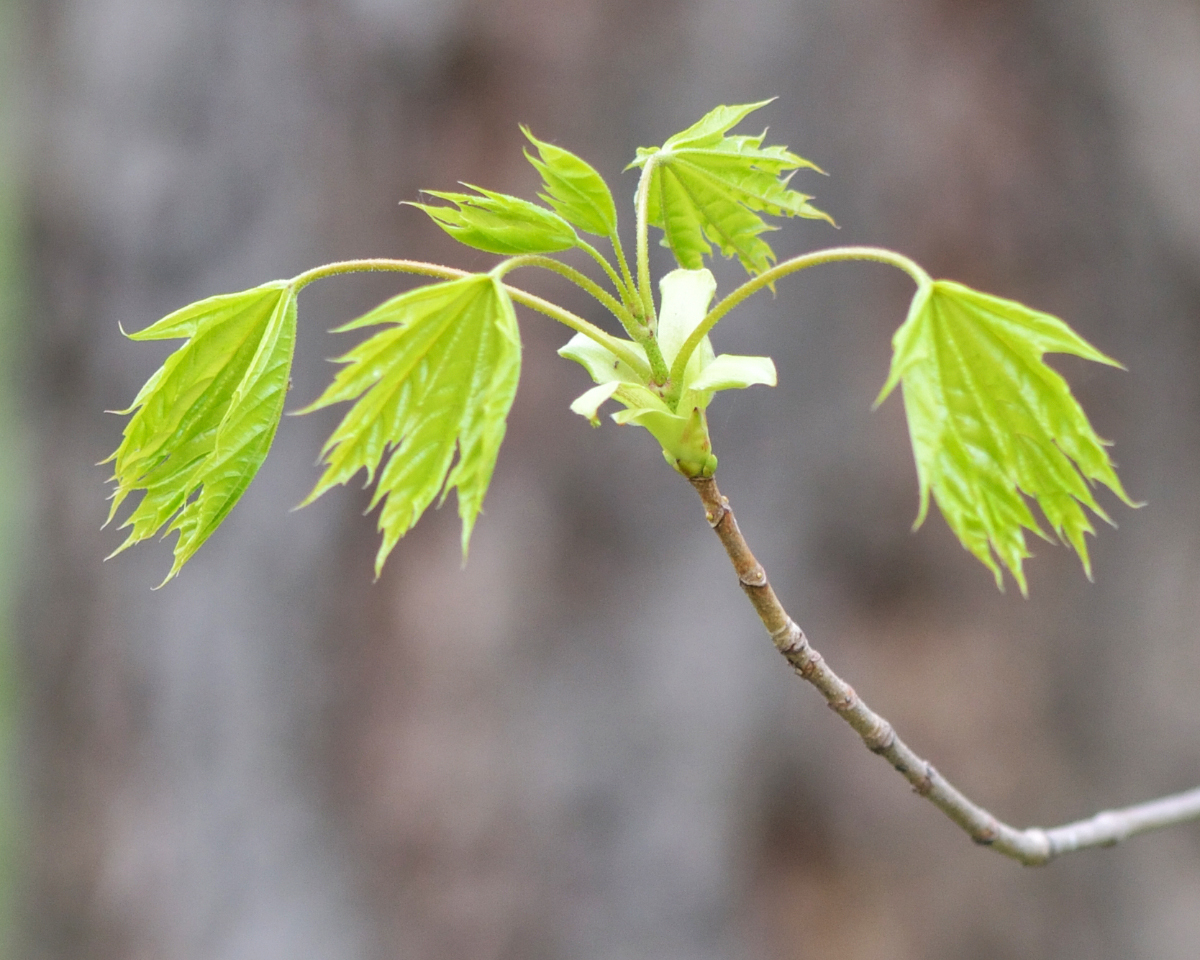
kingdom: Plantae
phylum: Tracheophyta
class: Magnoliopsida
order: Sapindales
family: Sapindaceae
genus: Acer
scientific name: Acer platanoides
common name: Norway maple
